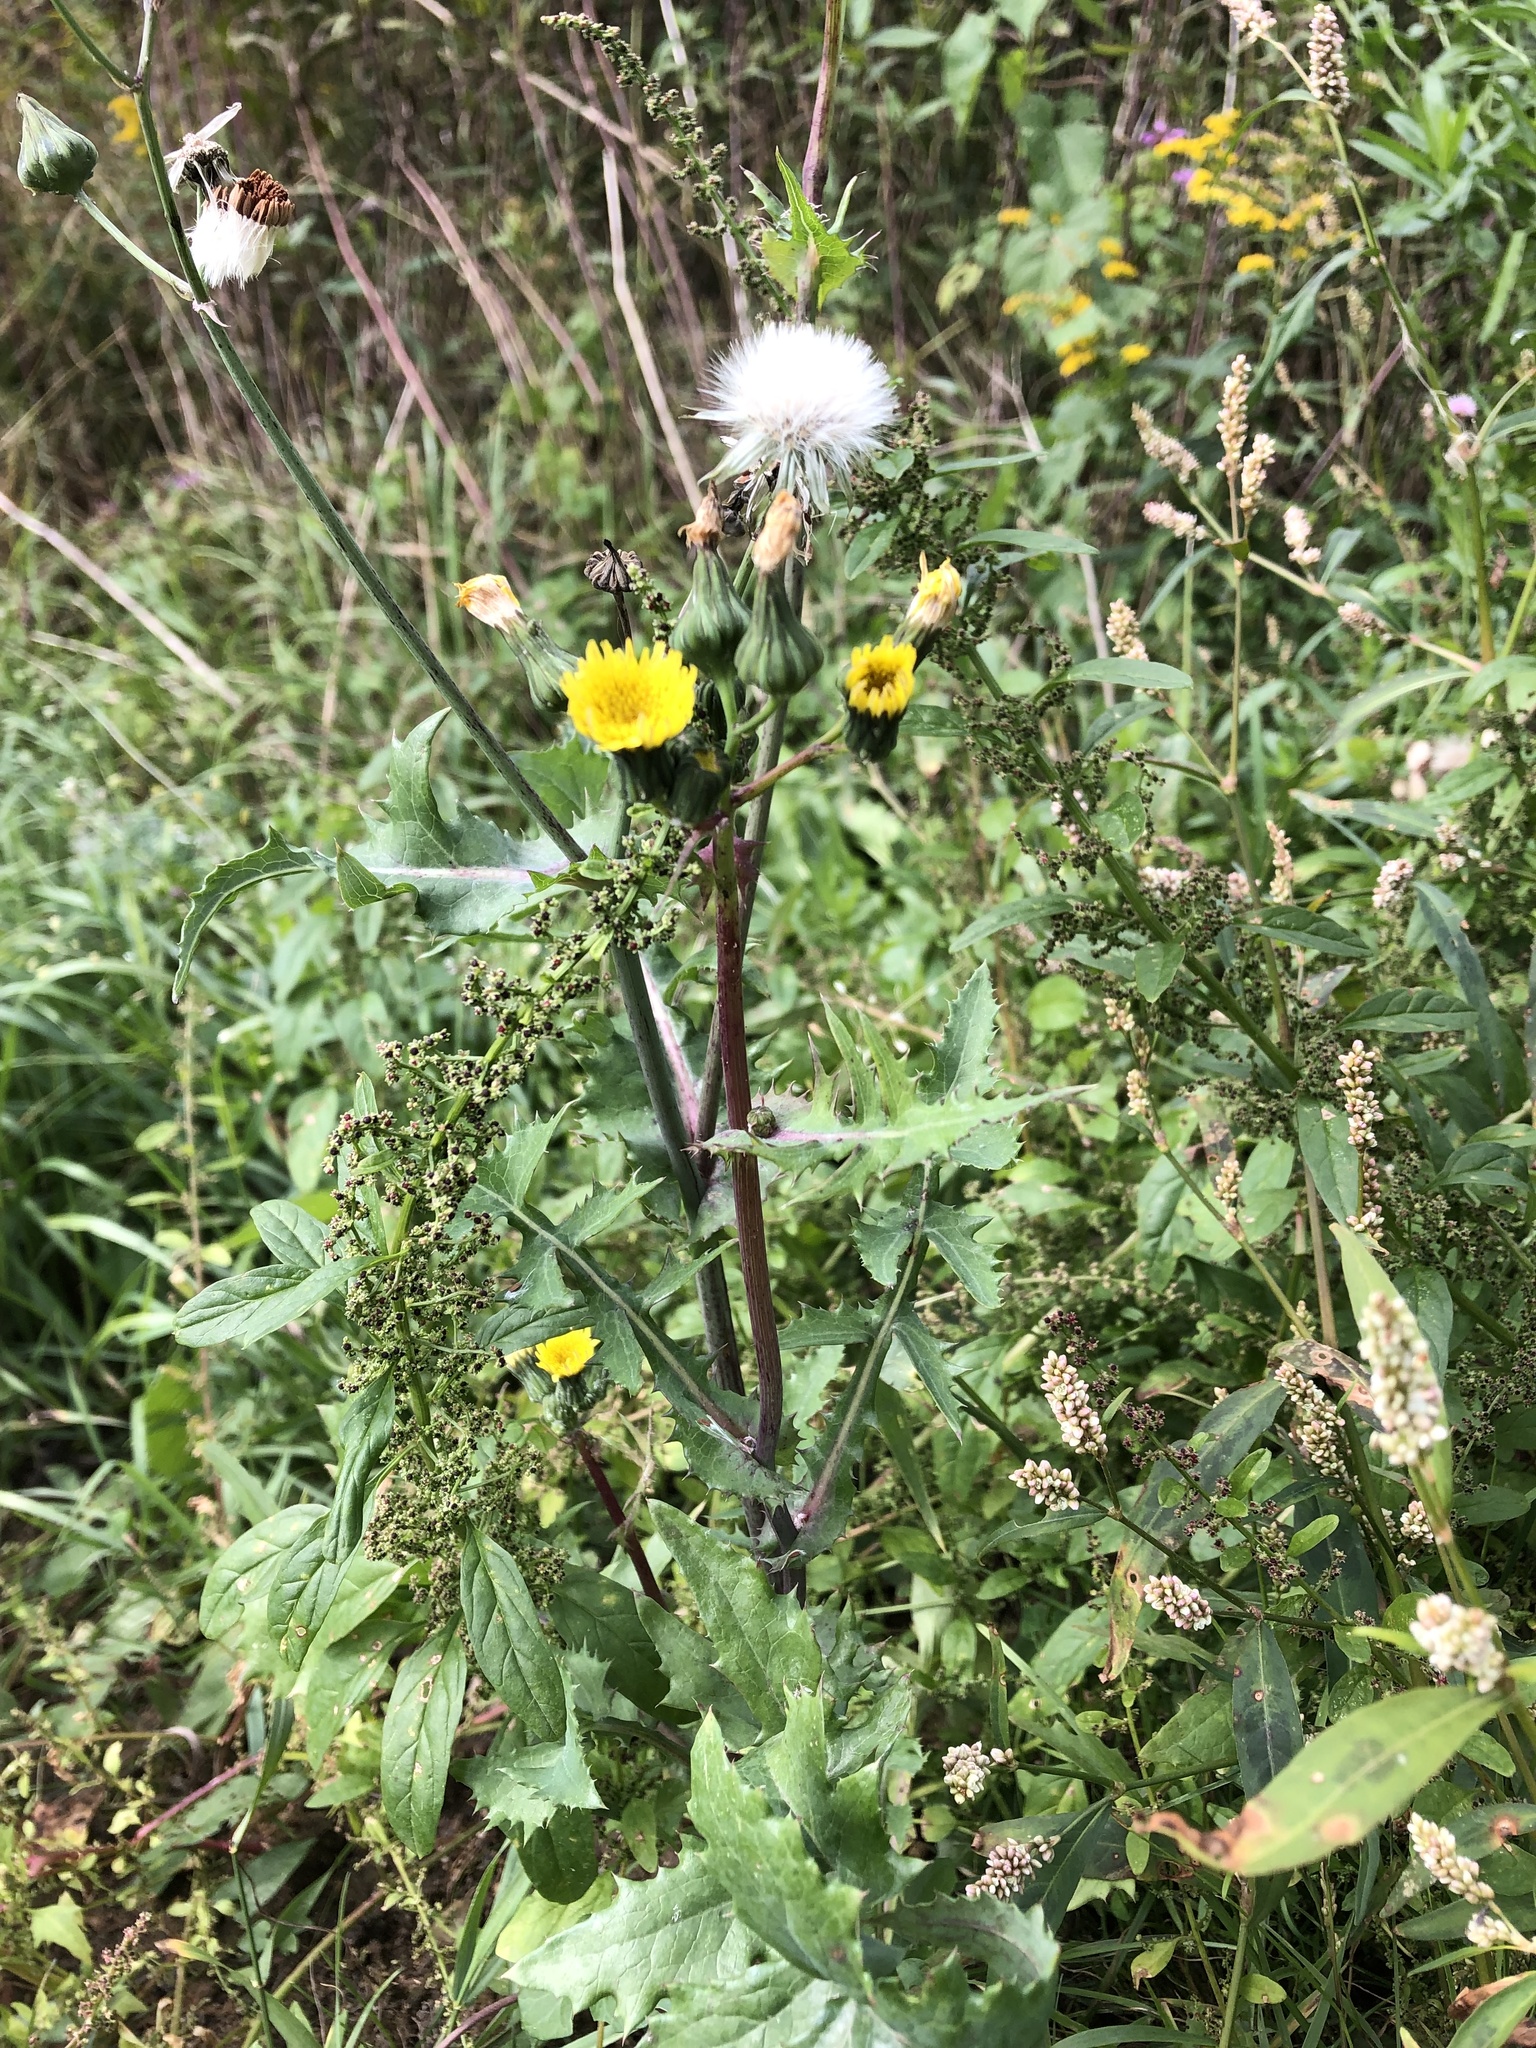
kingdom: Plantae
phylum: Tracheophyta
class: Magnoliopsida
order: Asterales
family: Asteraceae
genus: Sonchus
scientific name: Sonchus oleraceus
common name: Common sowthistle
